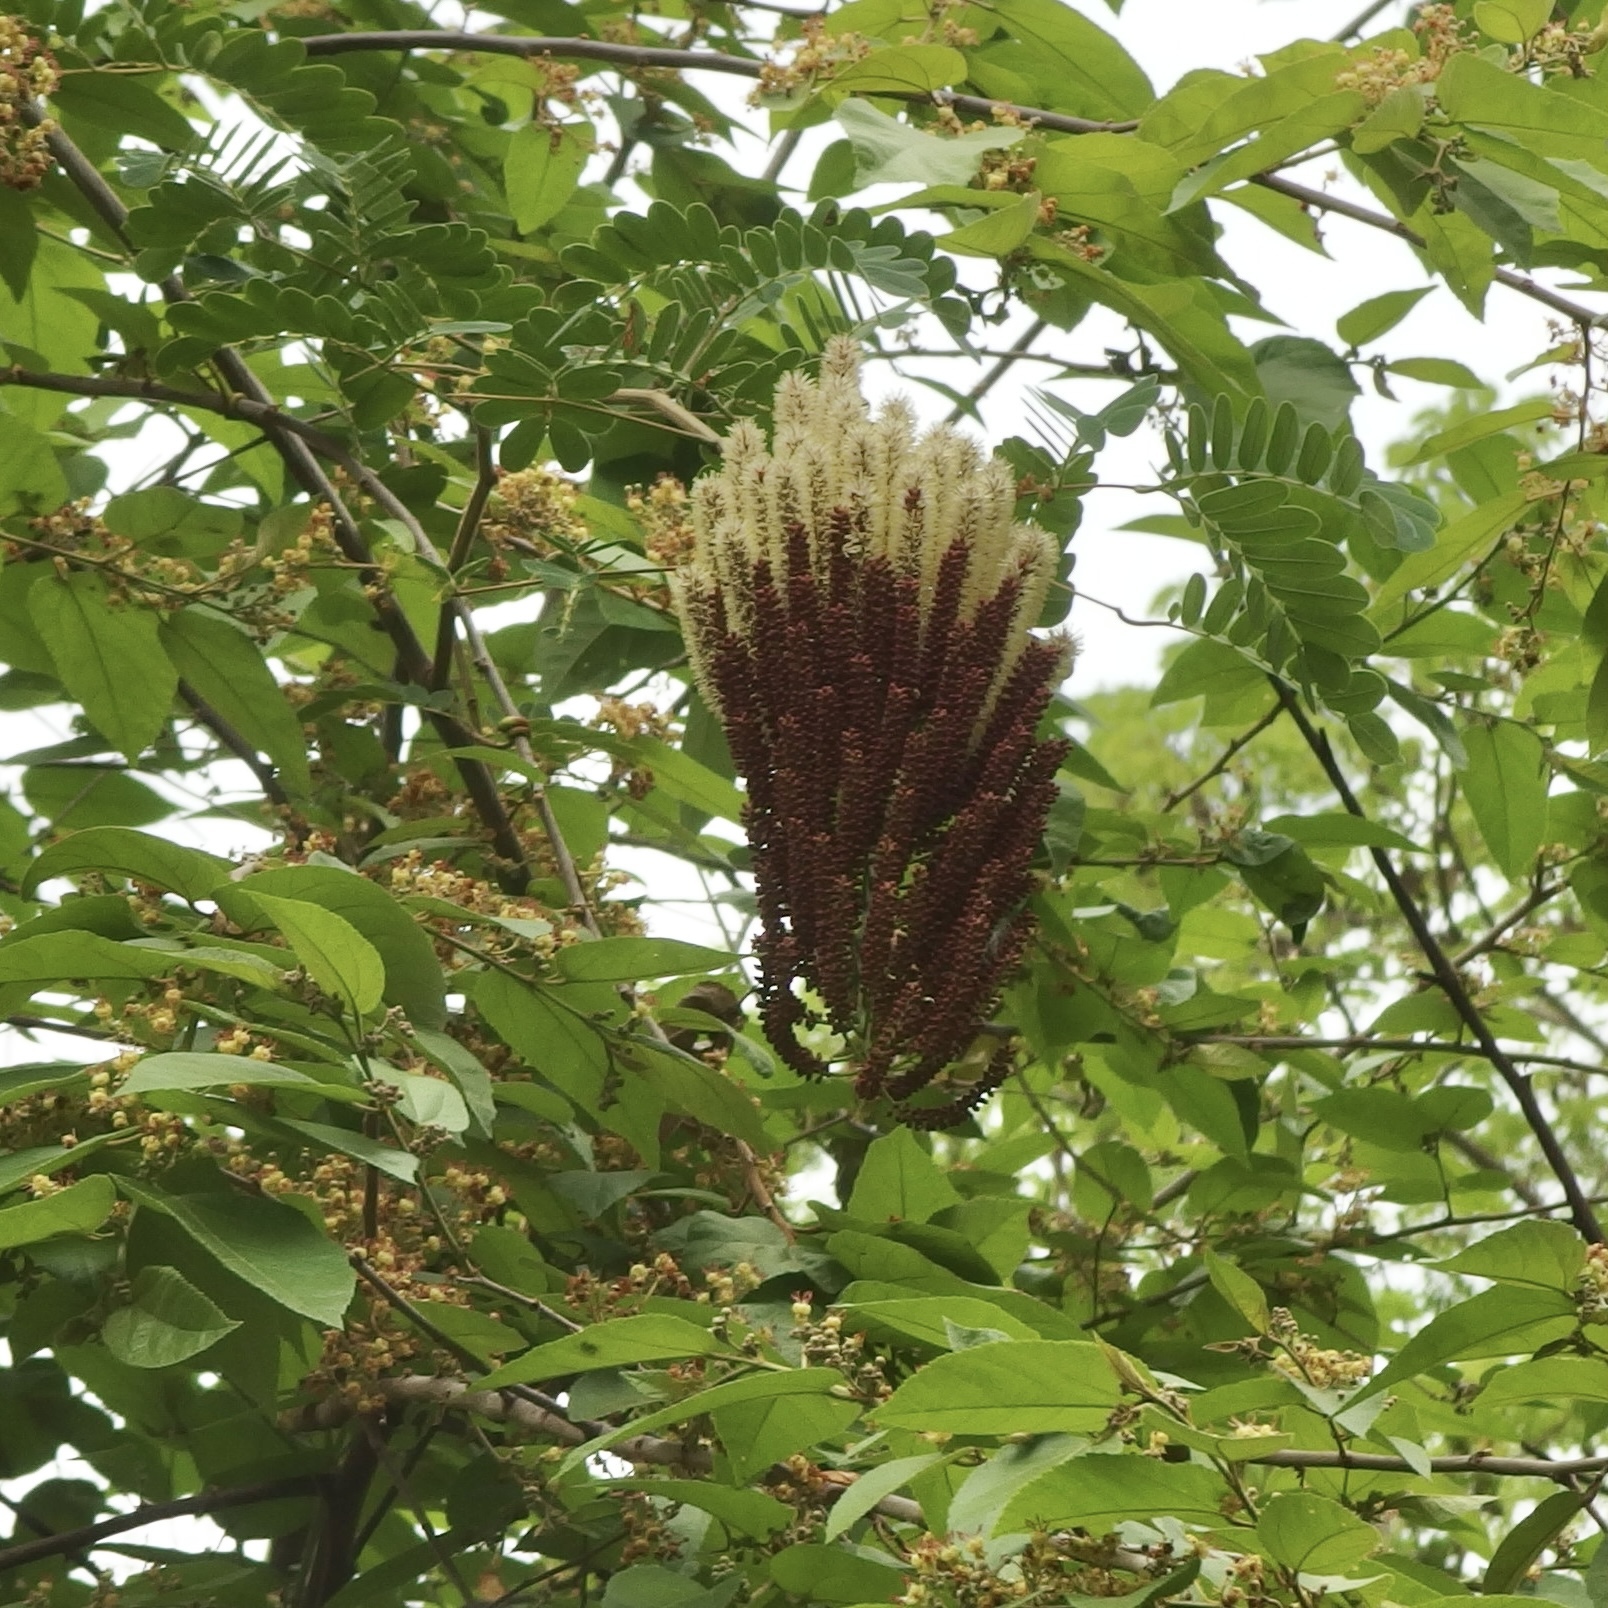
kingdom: Plantae
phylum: Tracheophyta
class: Magnoliopsida
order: Fabales
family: Fabaceae
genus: Entada
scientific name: Entada polystachya
